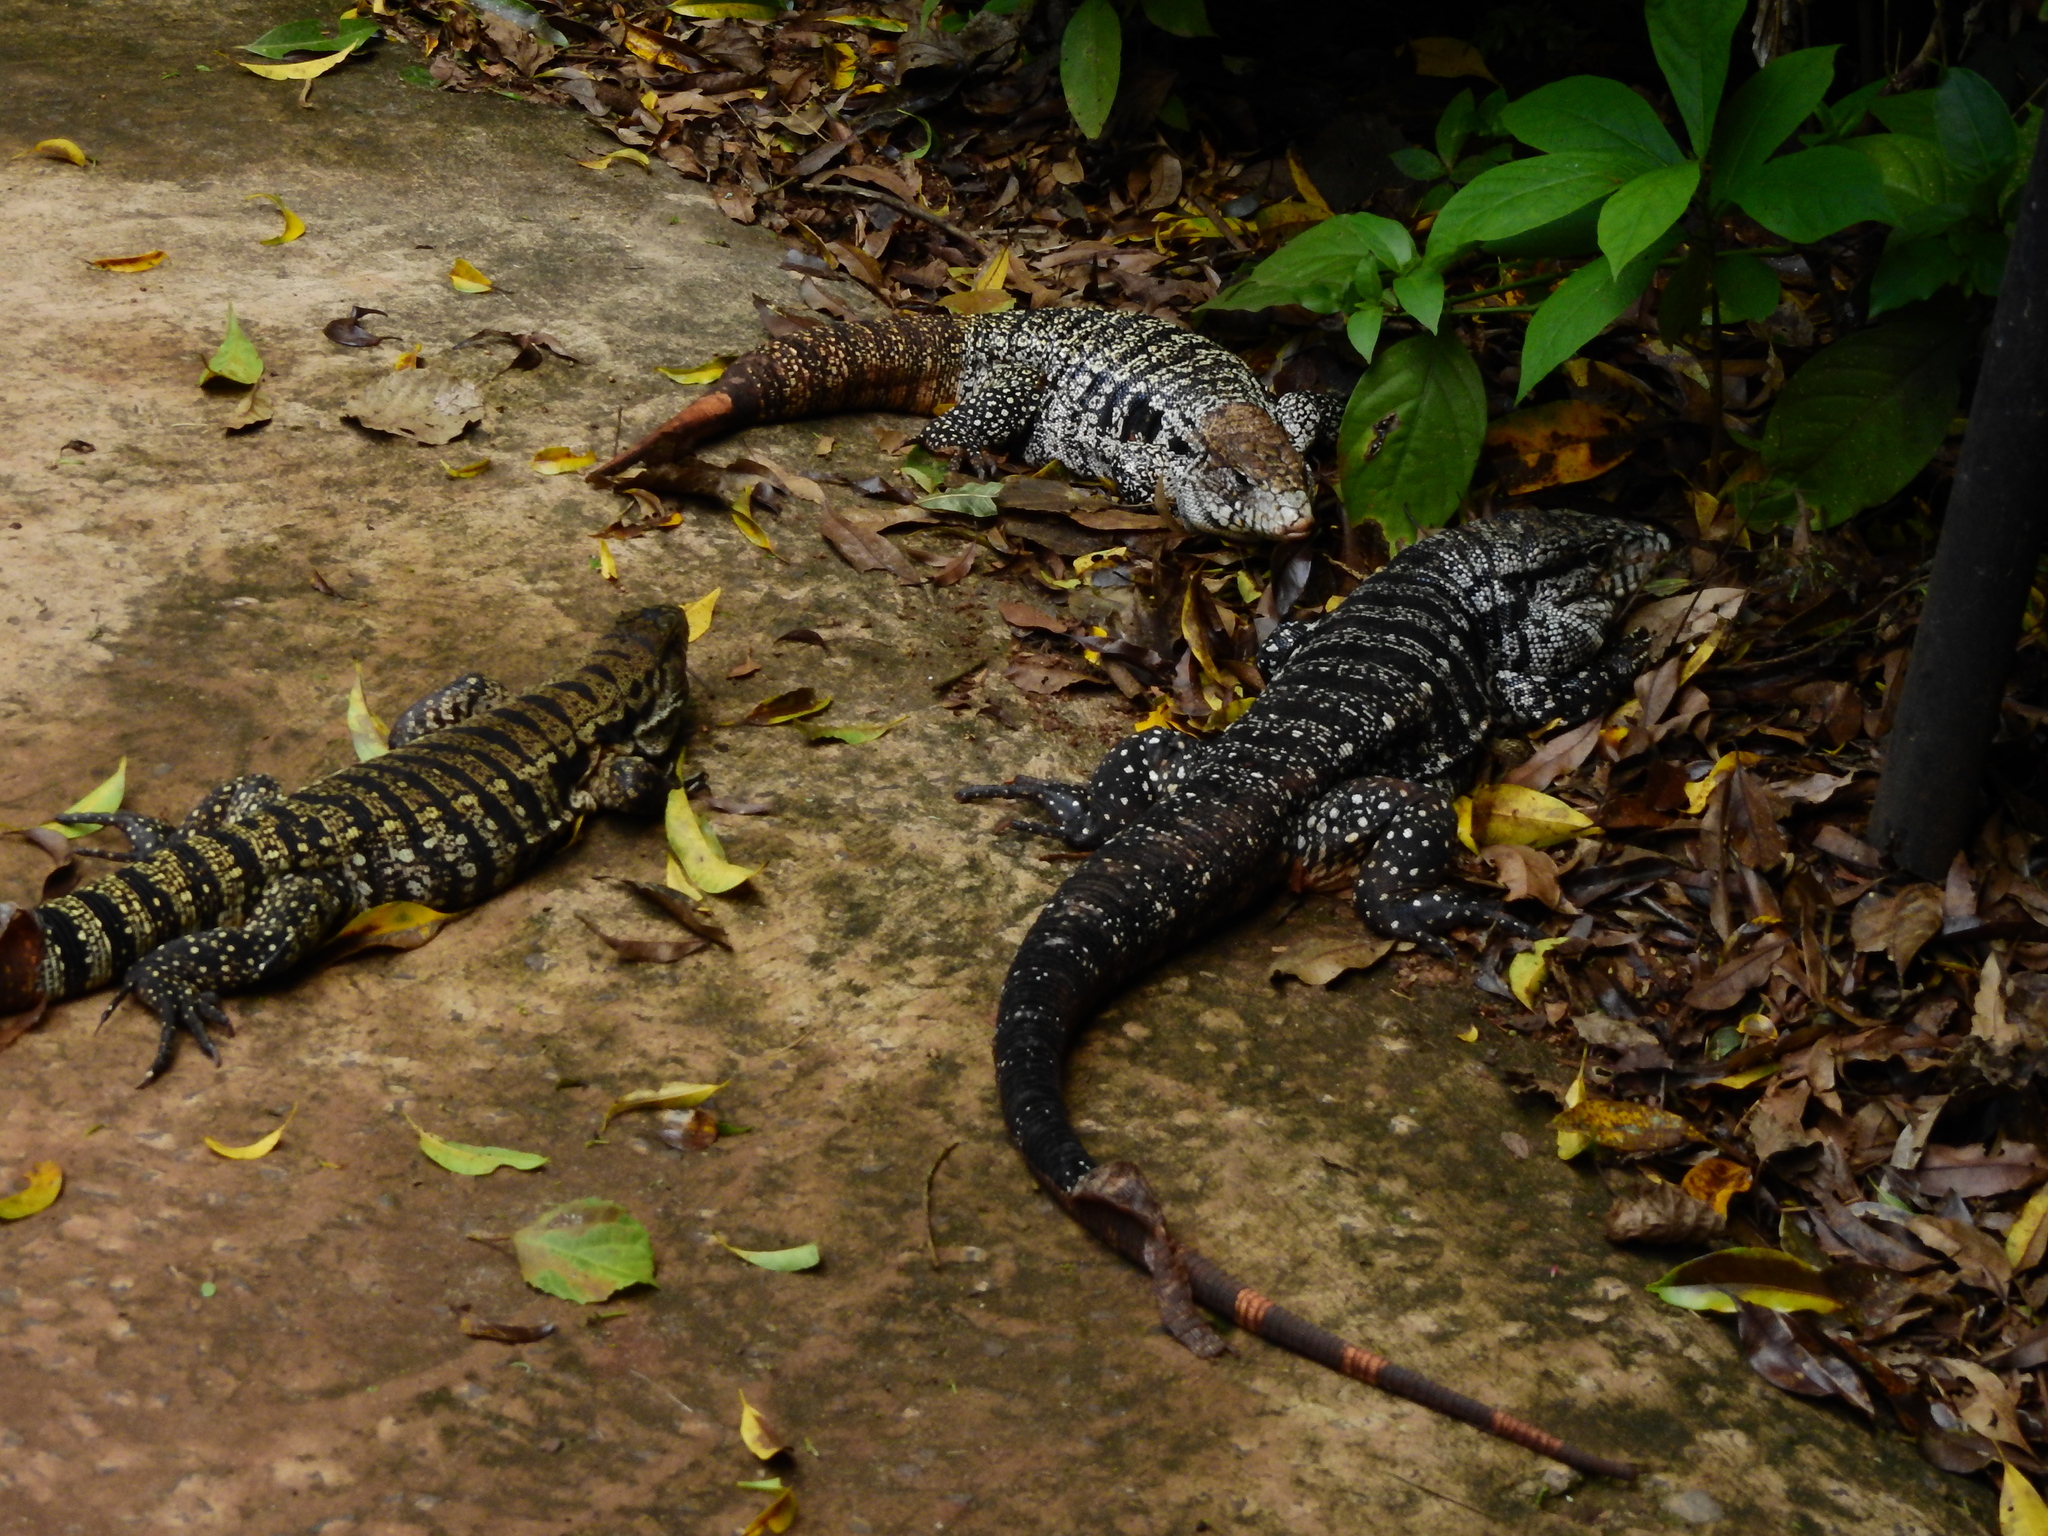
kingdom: Animalia
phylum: Chordata
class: Squamata
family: Teiidae
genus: Salvator
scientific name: Salvator merianae
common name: Argentine black and white tegu
